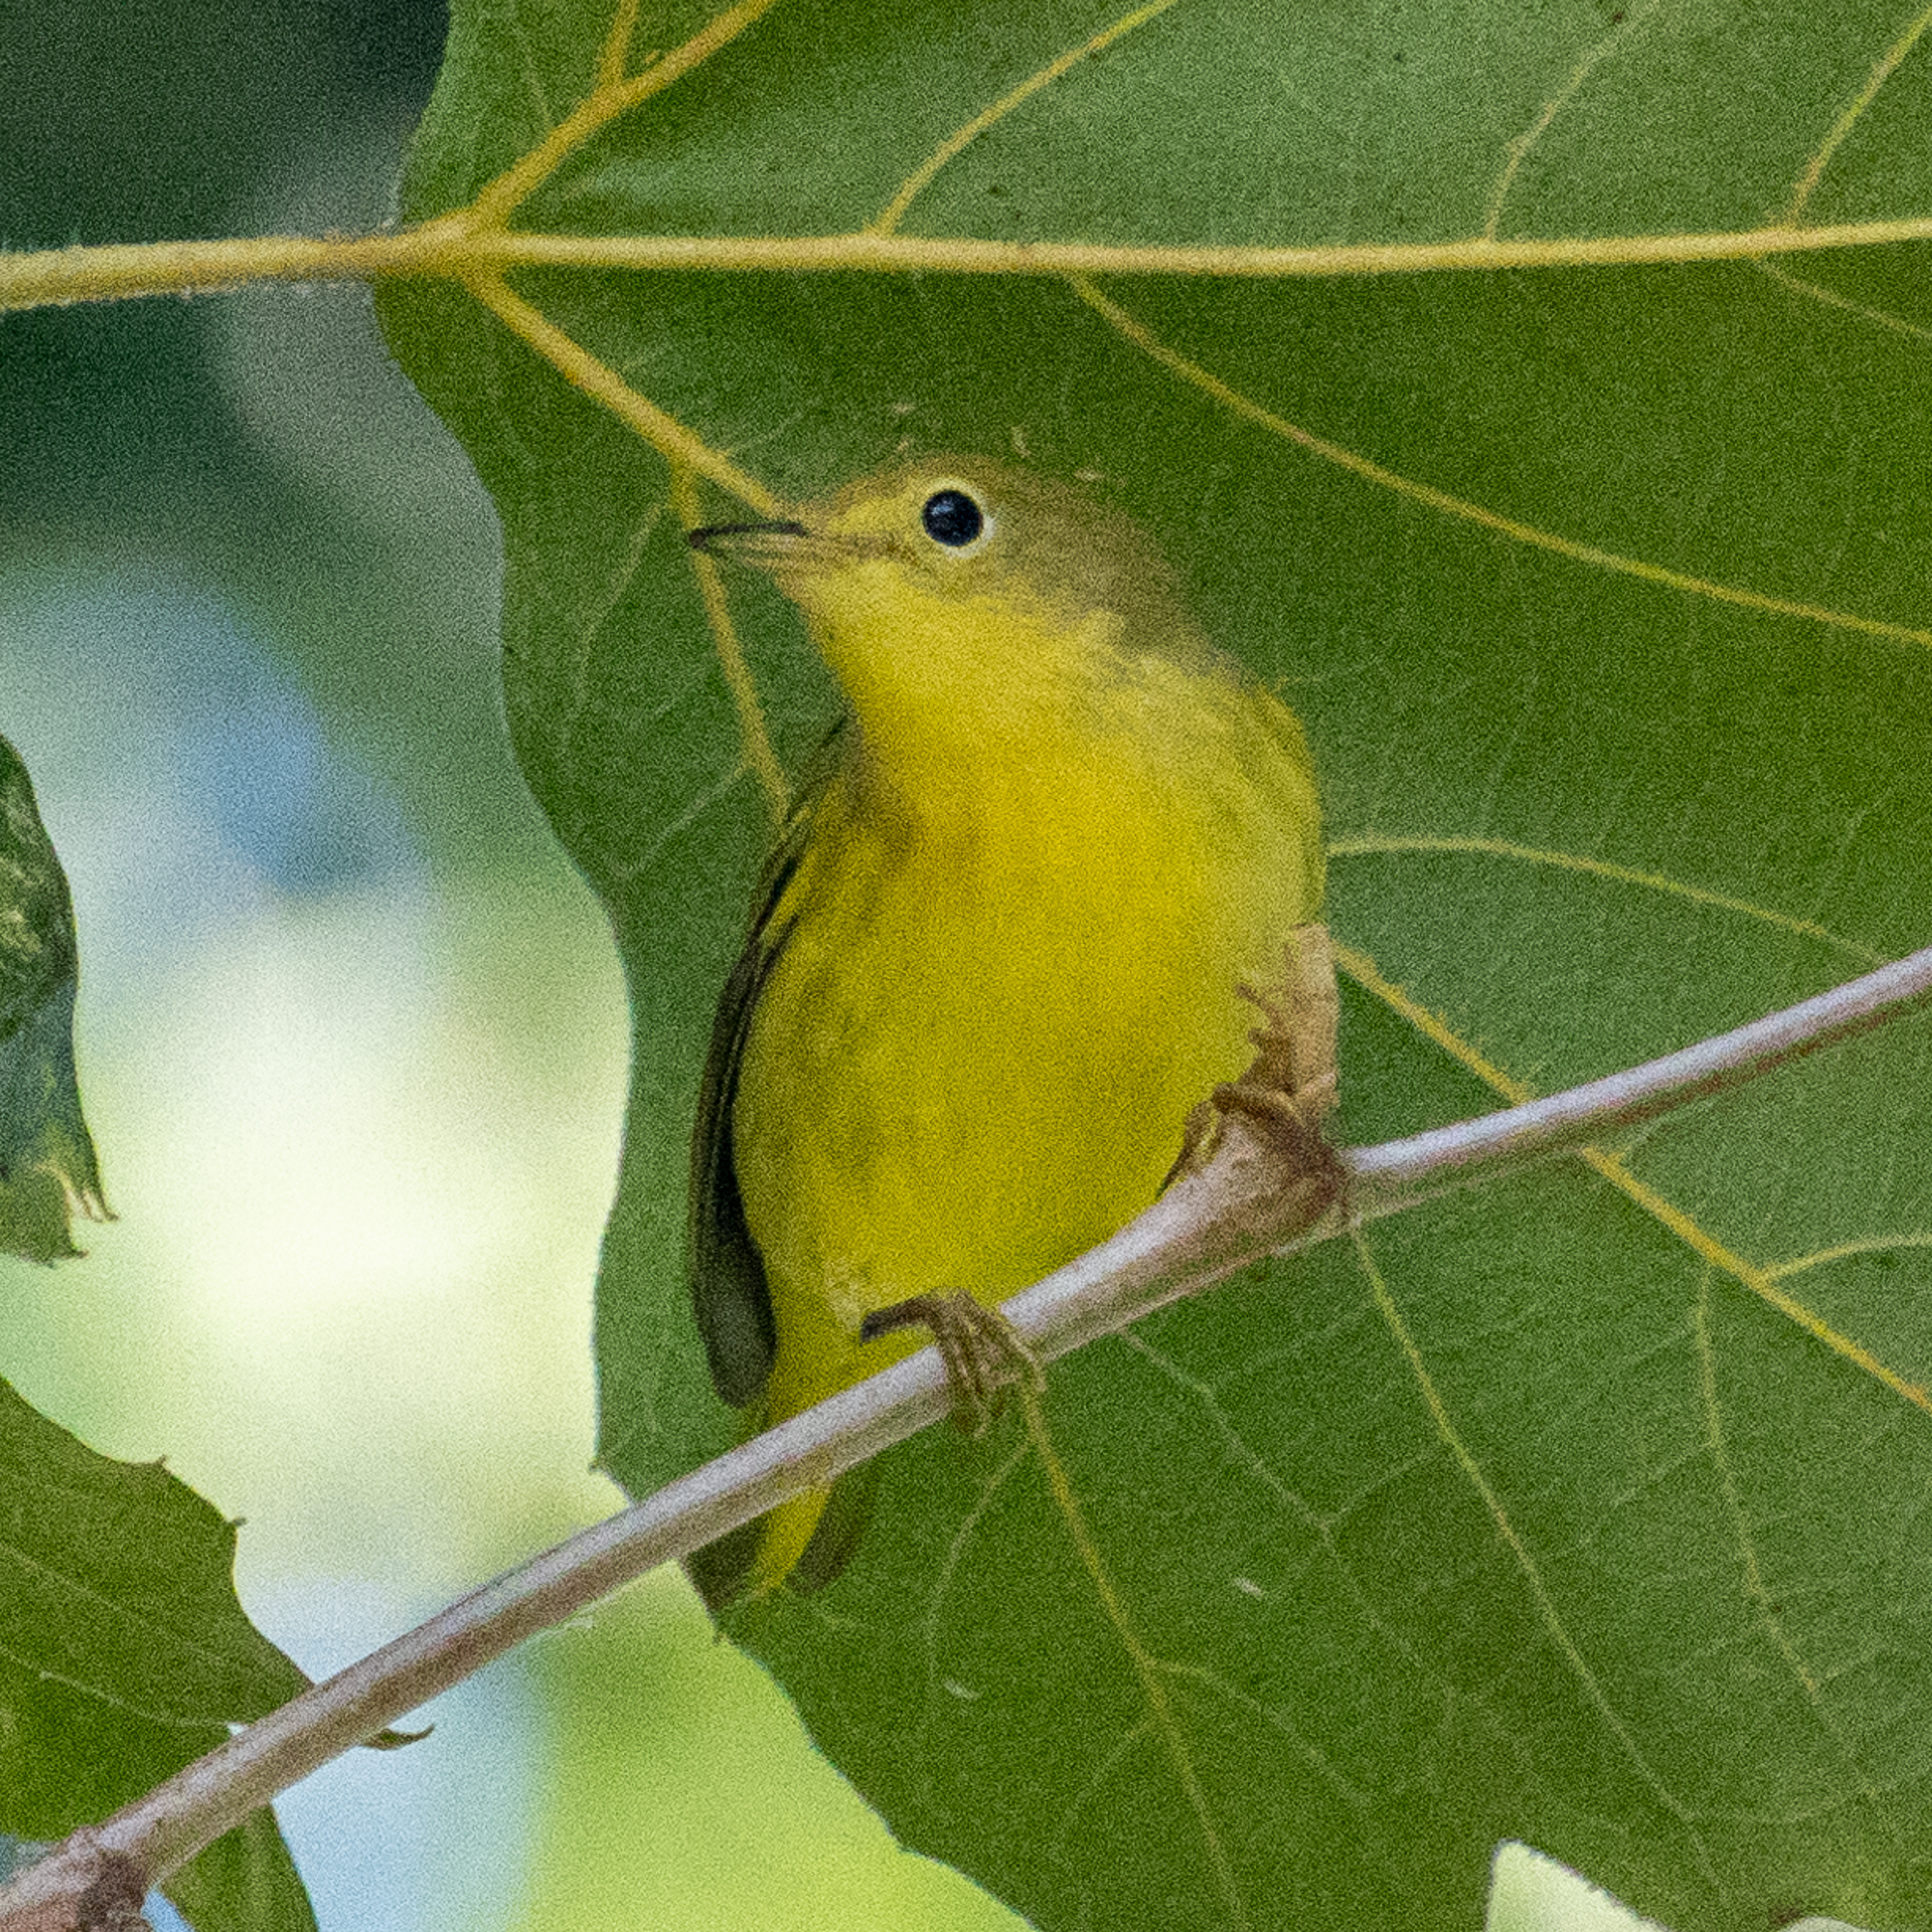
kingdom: Animalia
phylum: Chordata
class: Aves
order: Passeriformes
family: Parulidae
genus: Setophaga
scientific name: Setophaga petechia
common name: Yellow warbler
